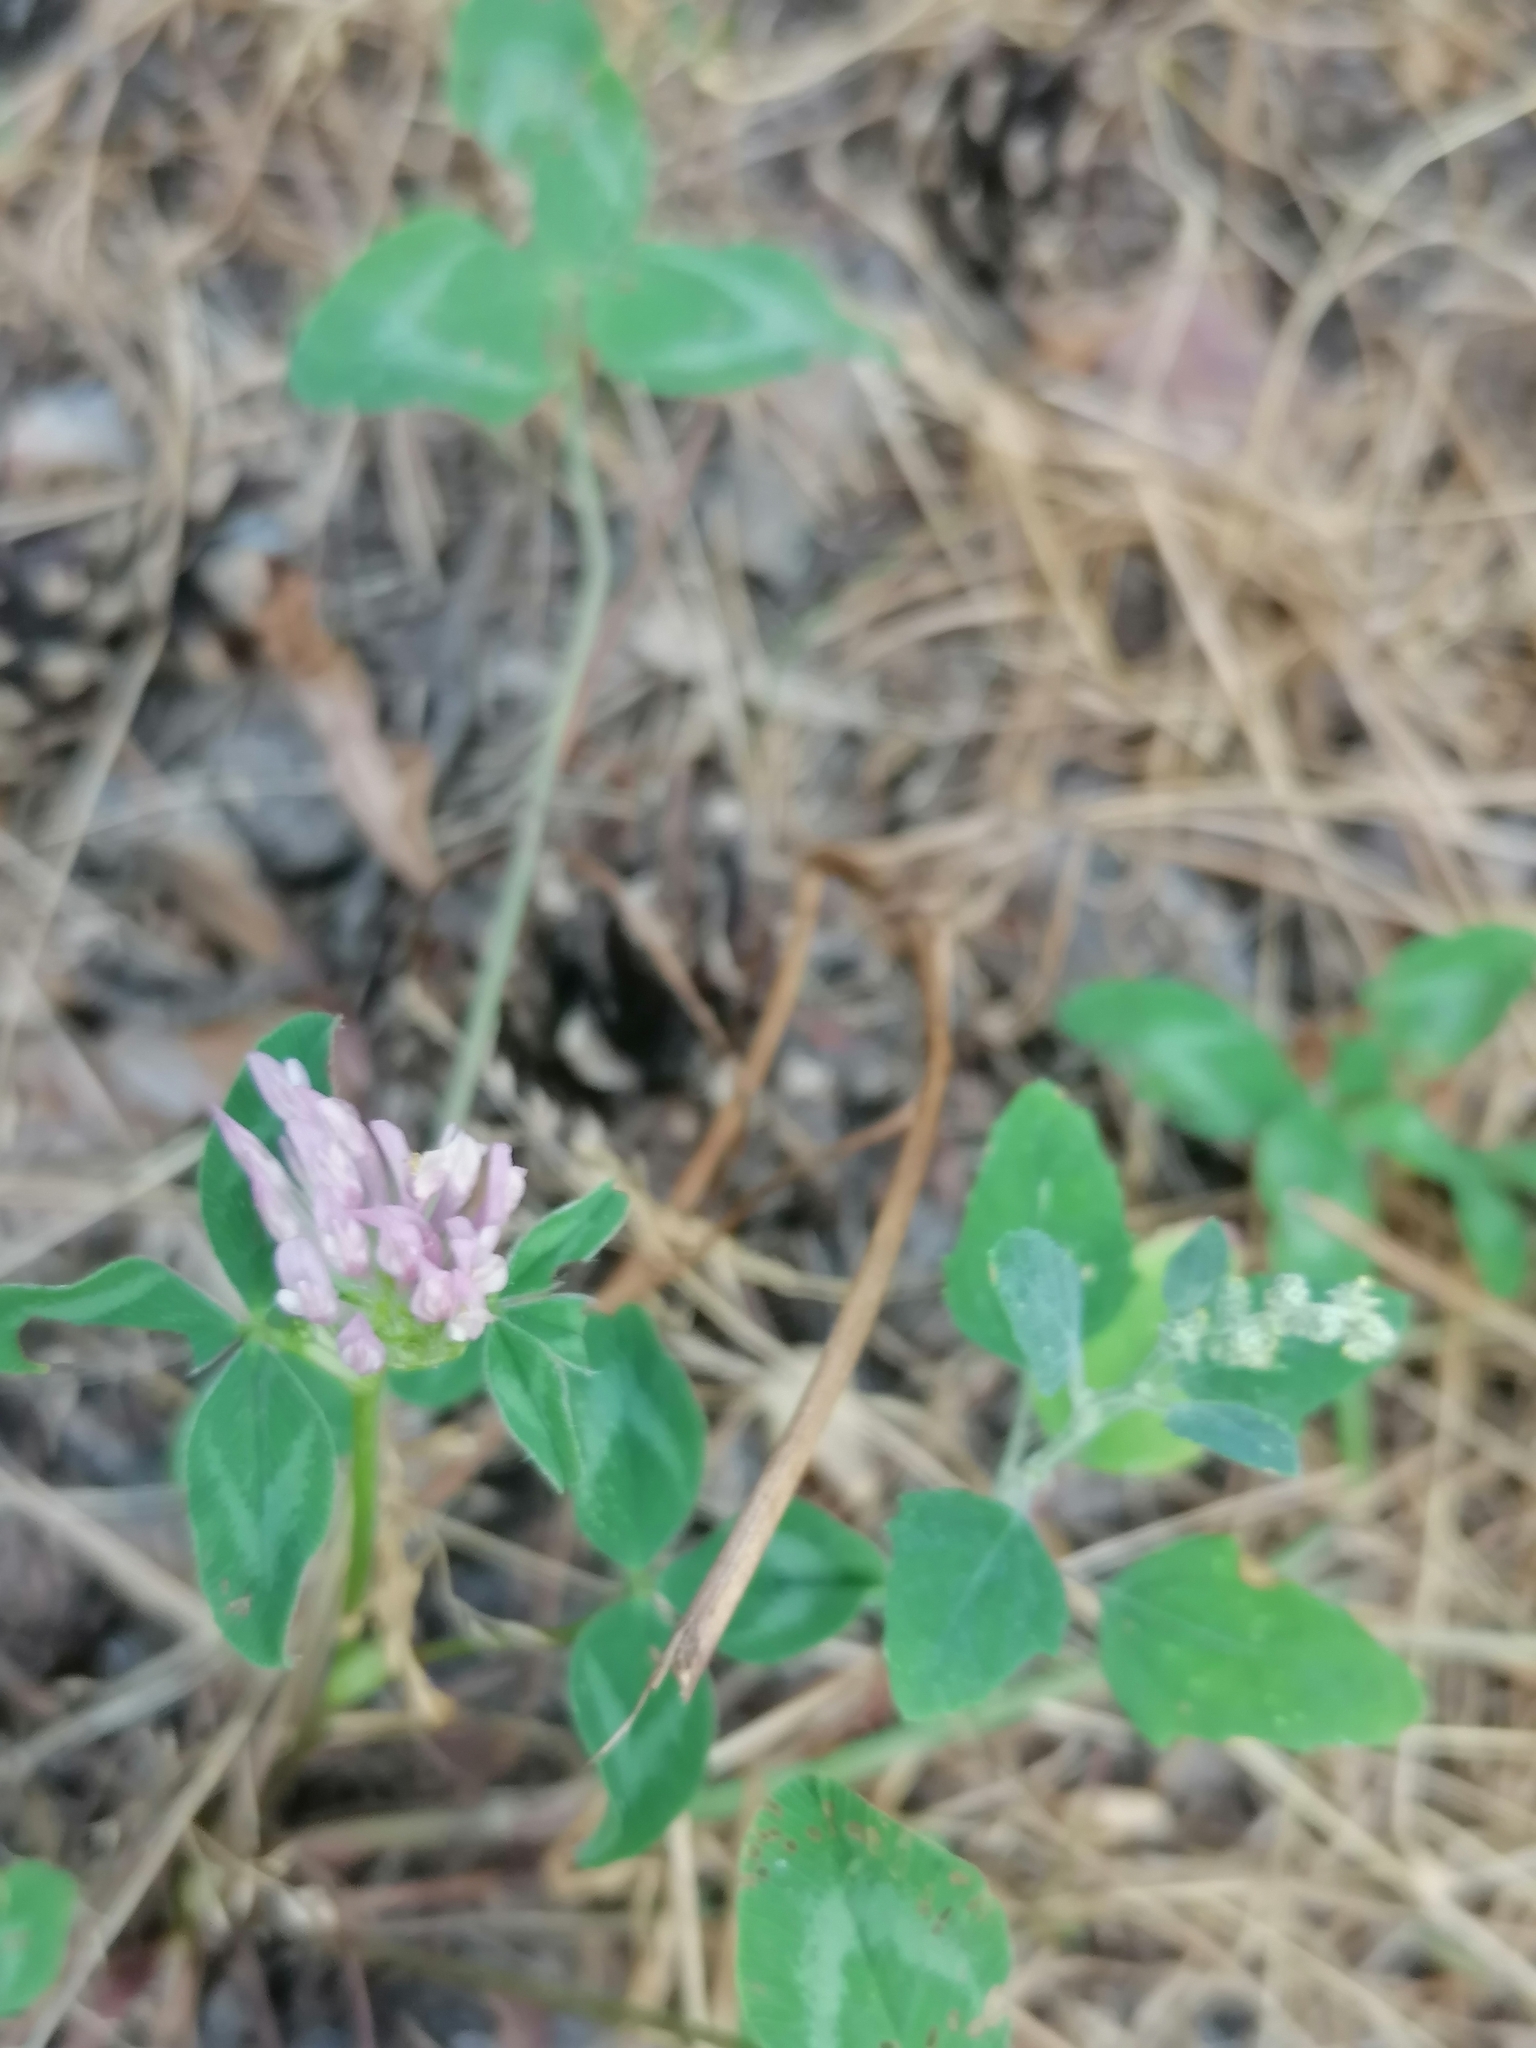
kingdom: Plantae
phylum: Tracheophyta
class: Magnoliopsida
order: Fabales
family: Fabaceae
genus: Trifolium
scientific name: Trifolium pratense
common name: Red clover
